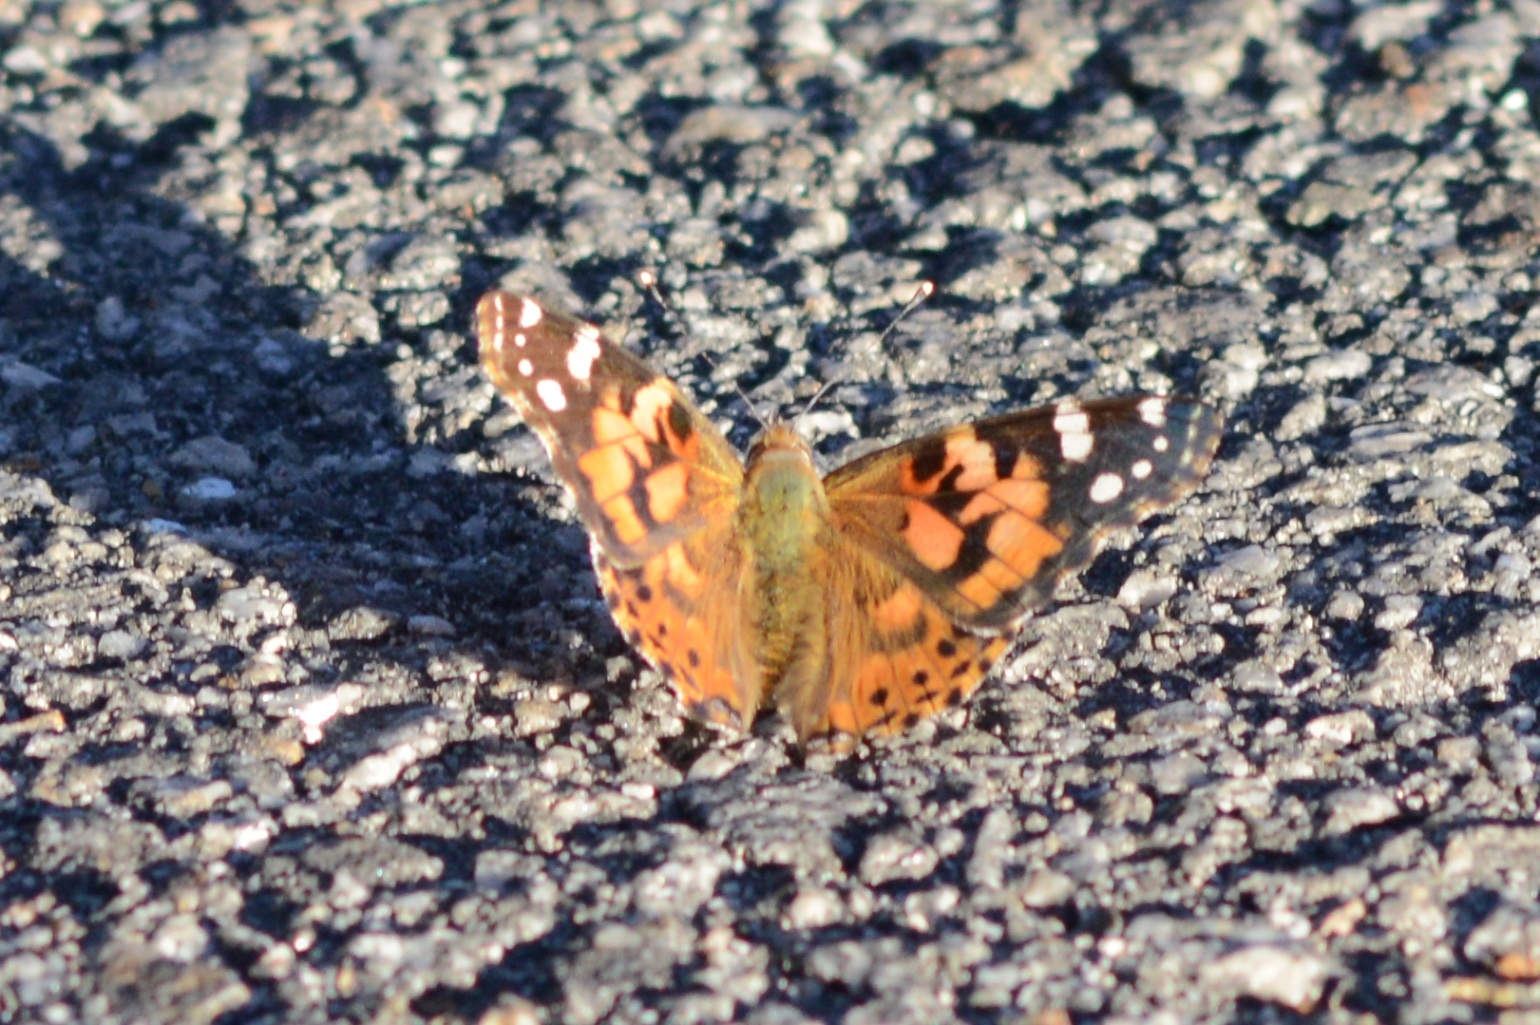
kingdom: Animalia
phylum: Arthropoda
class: Insecta
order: Lepidoptera
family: Nymphalidae
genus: Vanessa
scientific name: Vanessa cardui
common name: Painted lady
